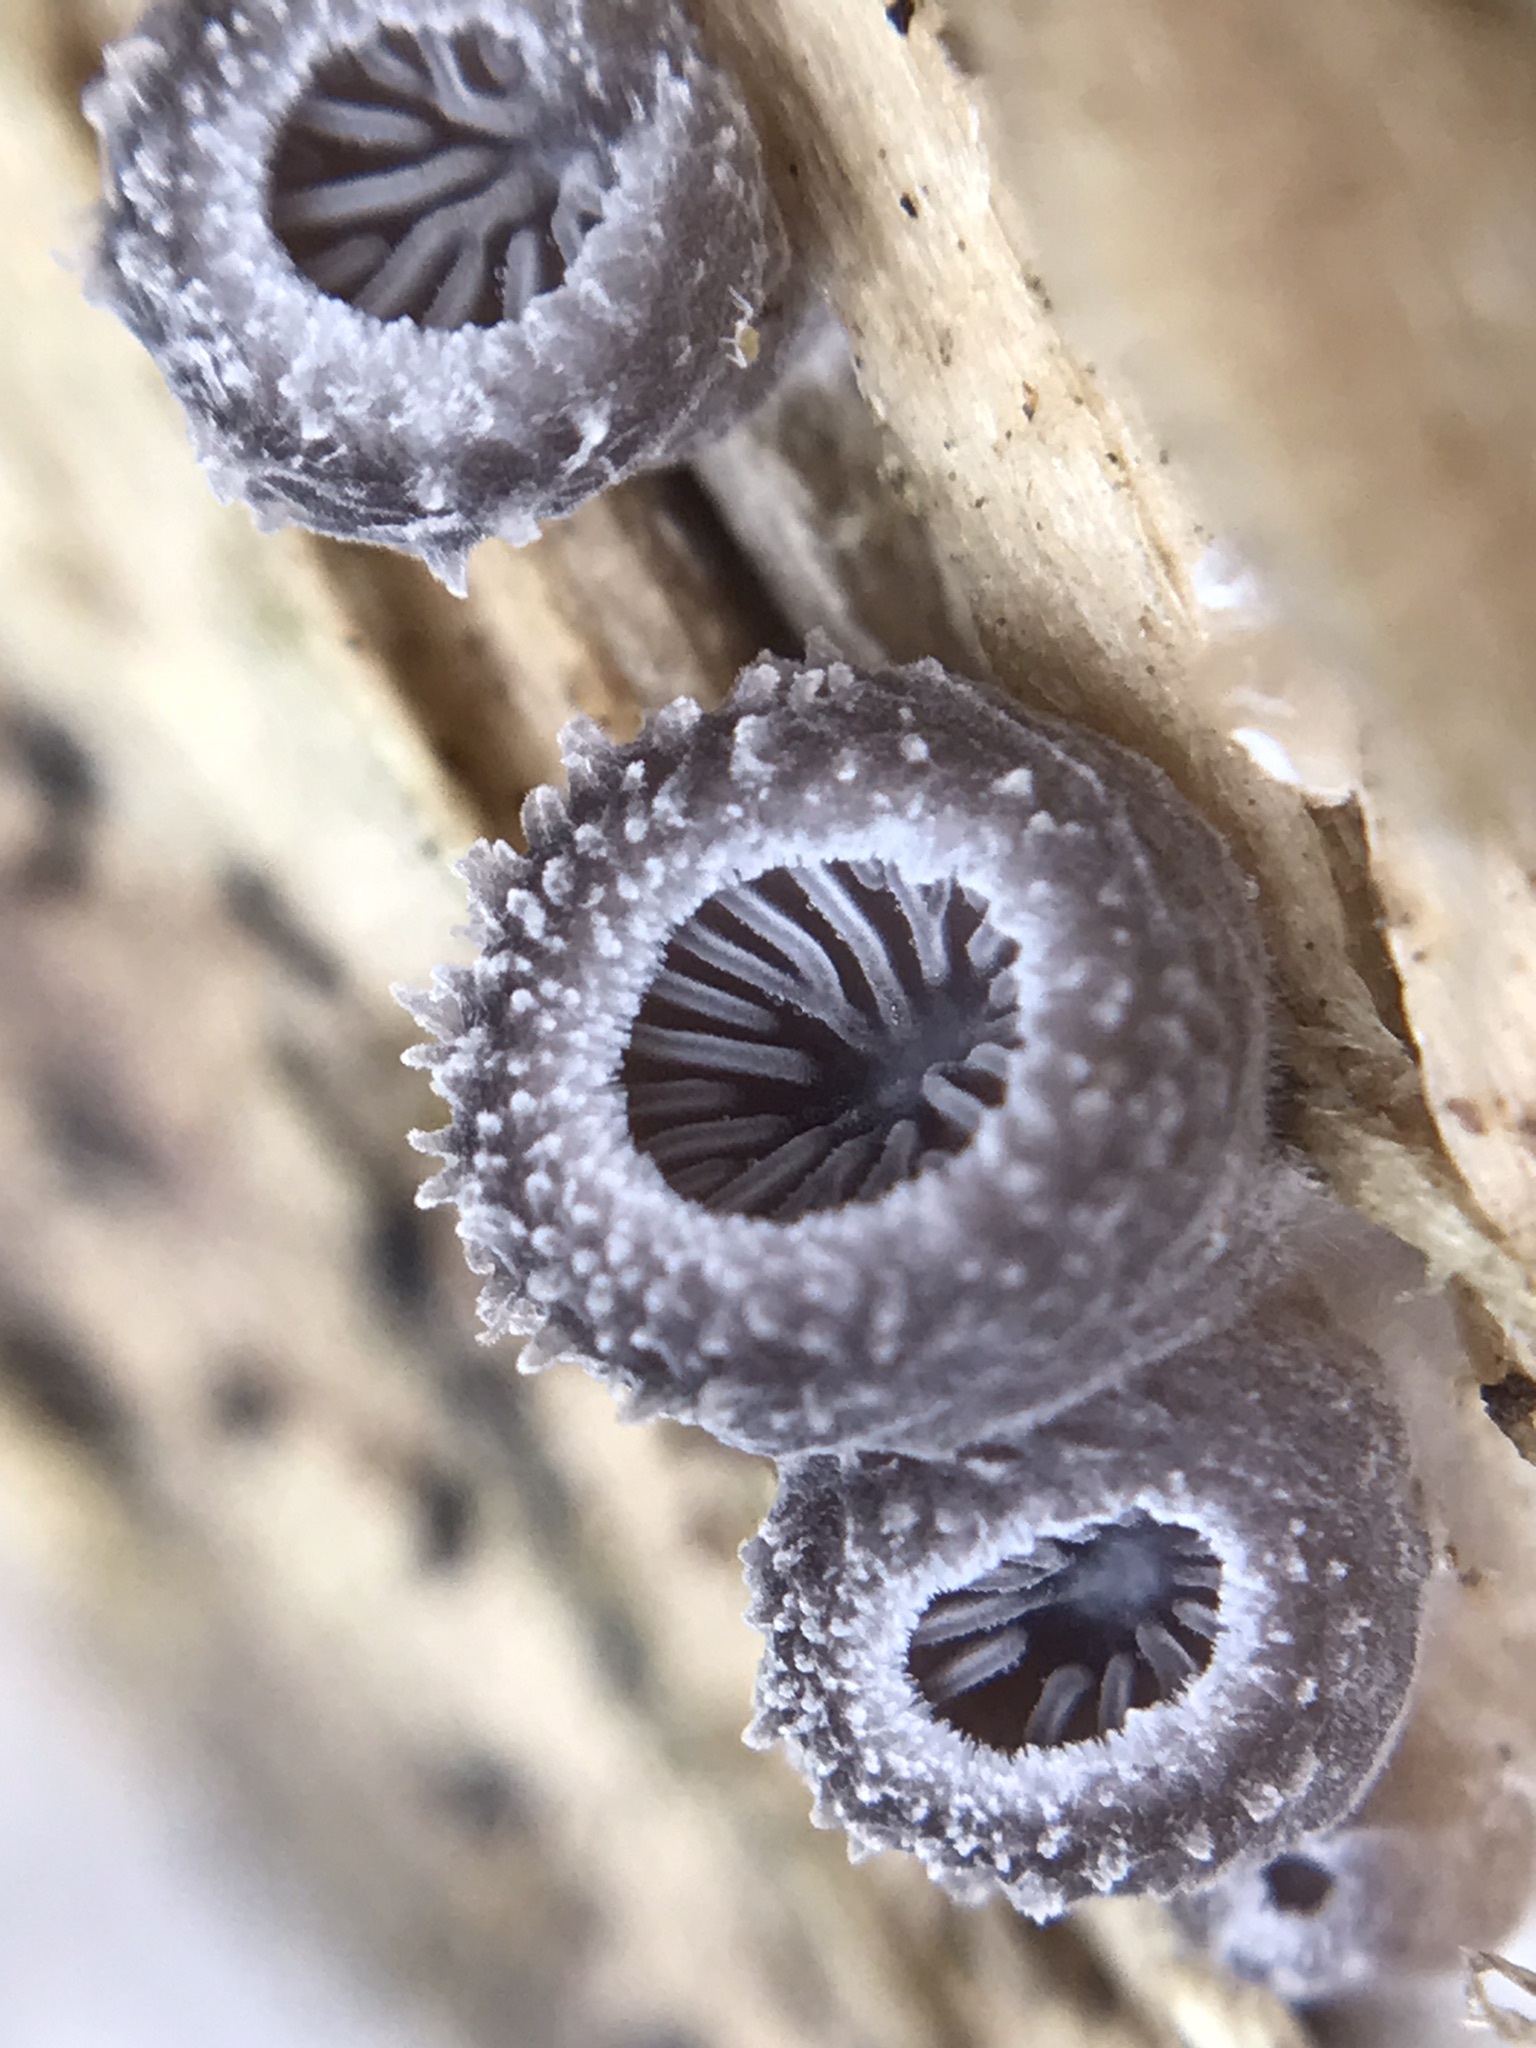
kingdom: Fungi
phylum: Basidiomycota
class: Agaricomycetes
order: Agaricales
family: Pleurotaceae
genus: Hohenbuehelia
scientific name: Hohenbuehelia mastrucata
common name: Woolly oyster
